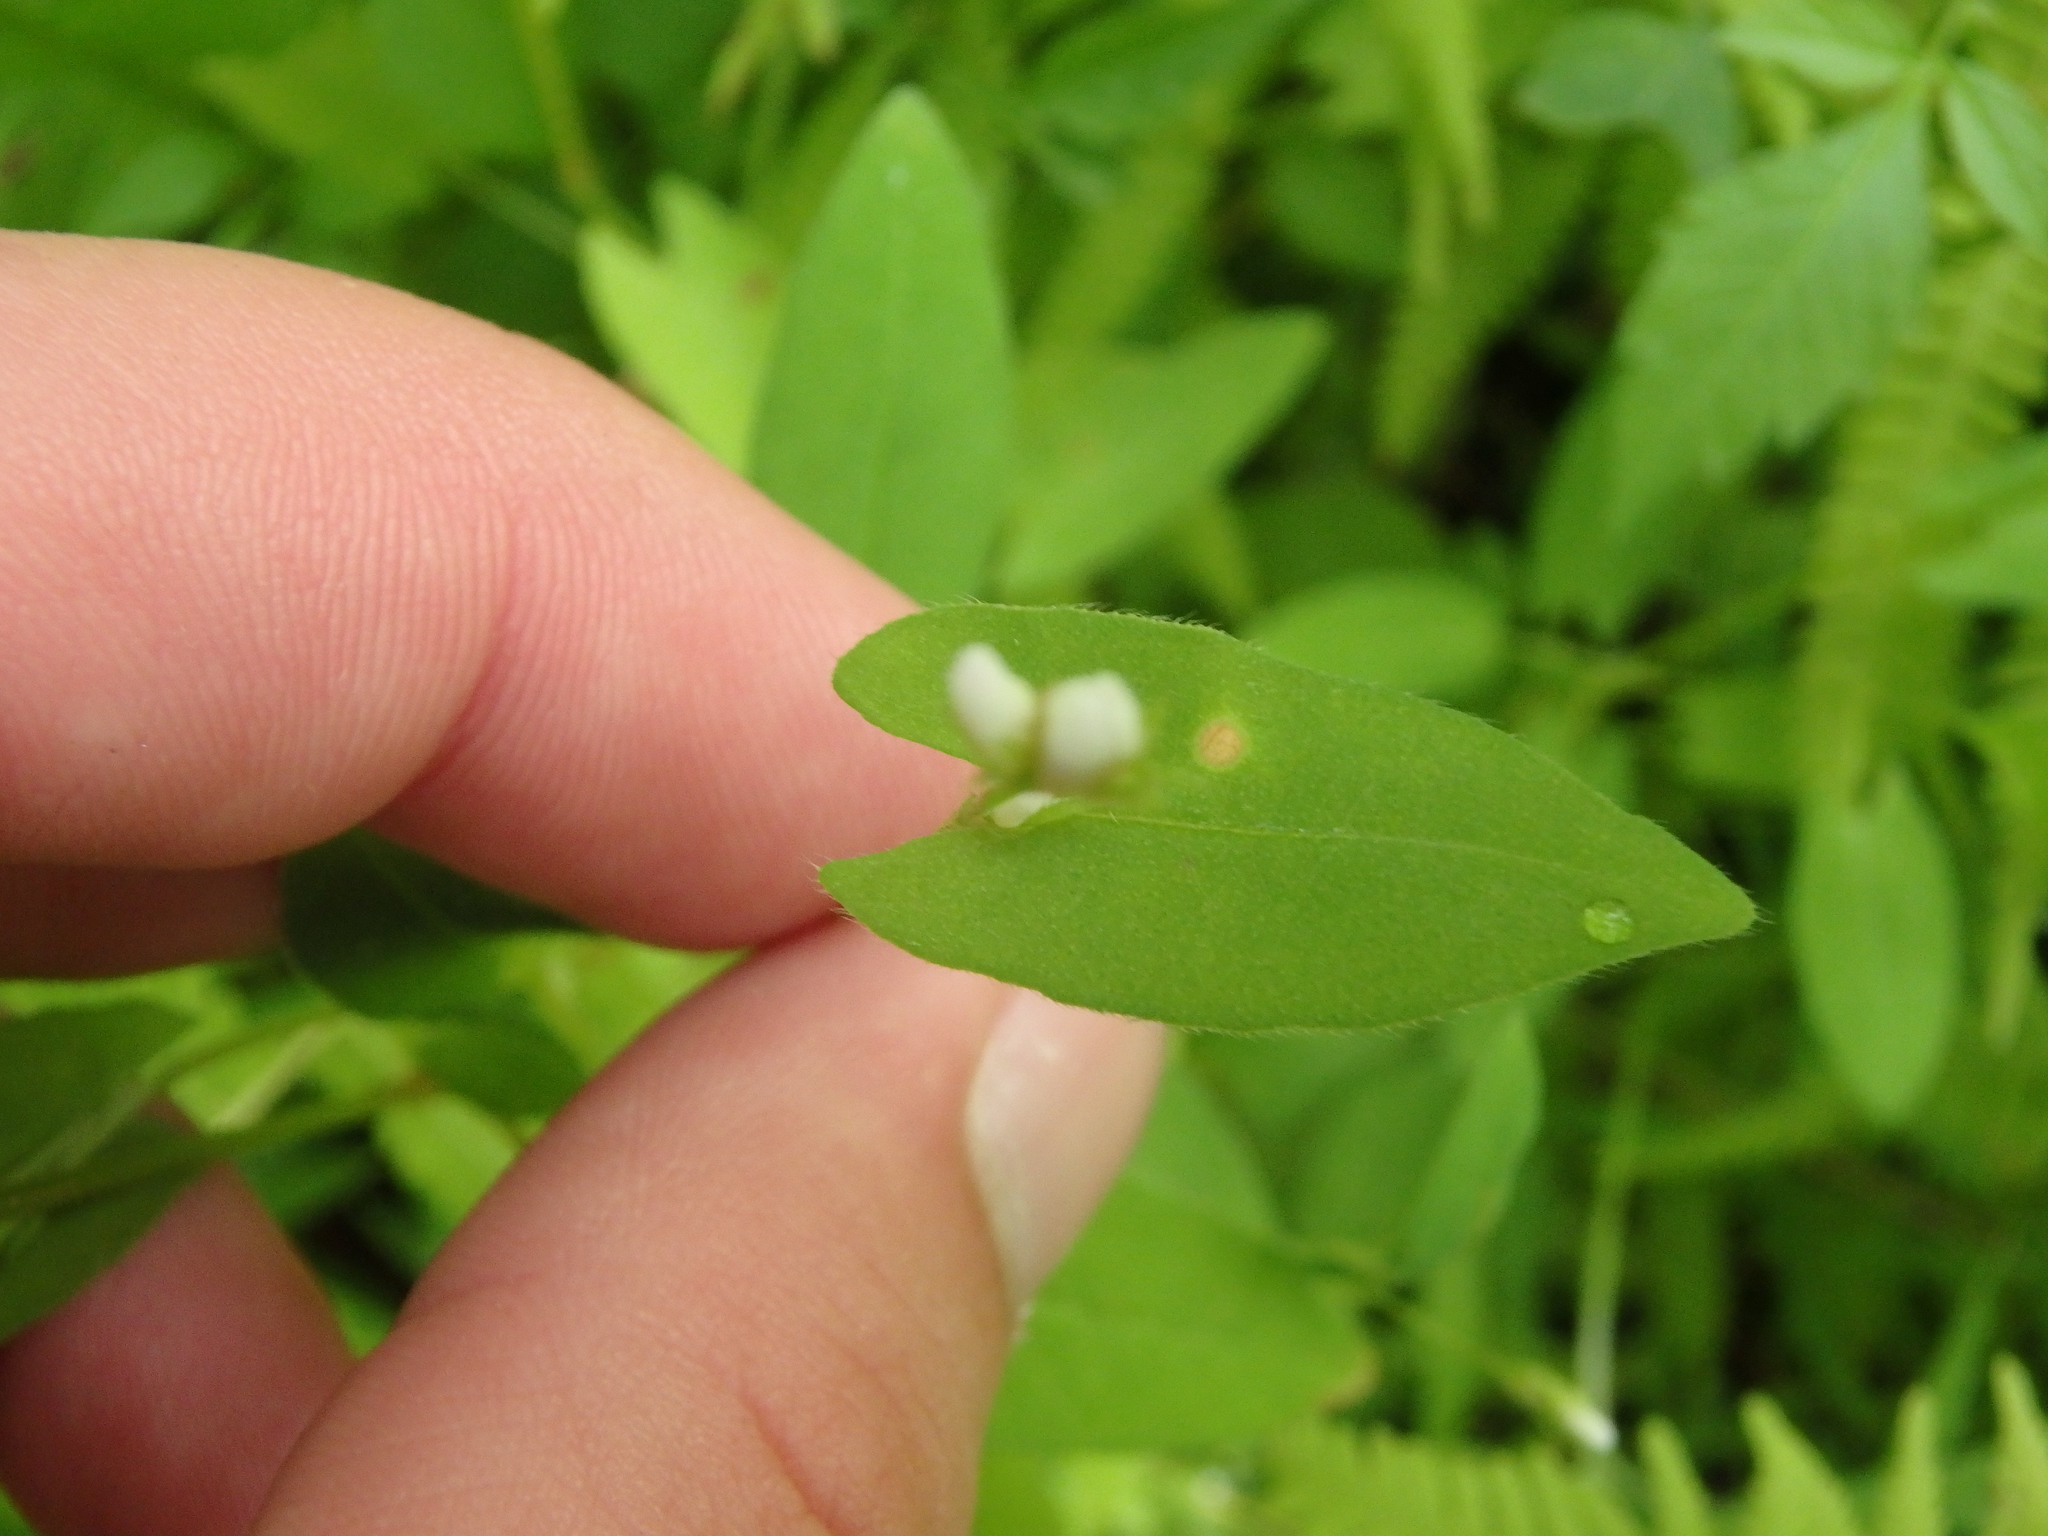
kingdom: Plantae
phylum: Tracheophyta
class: Magnoliopsida
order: Caryophyllales
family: Polygonaceae
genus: Persicaria
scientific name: Persicaria sagittata
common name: American tearthumb
